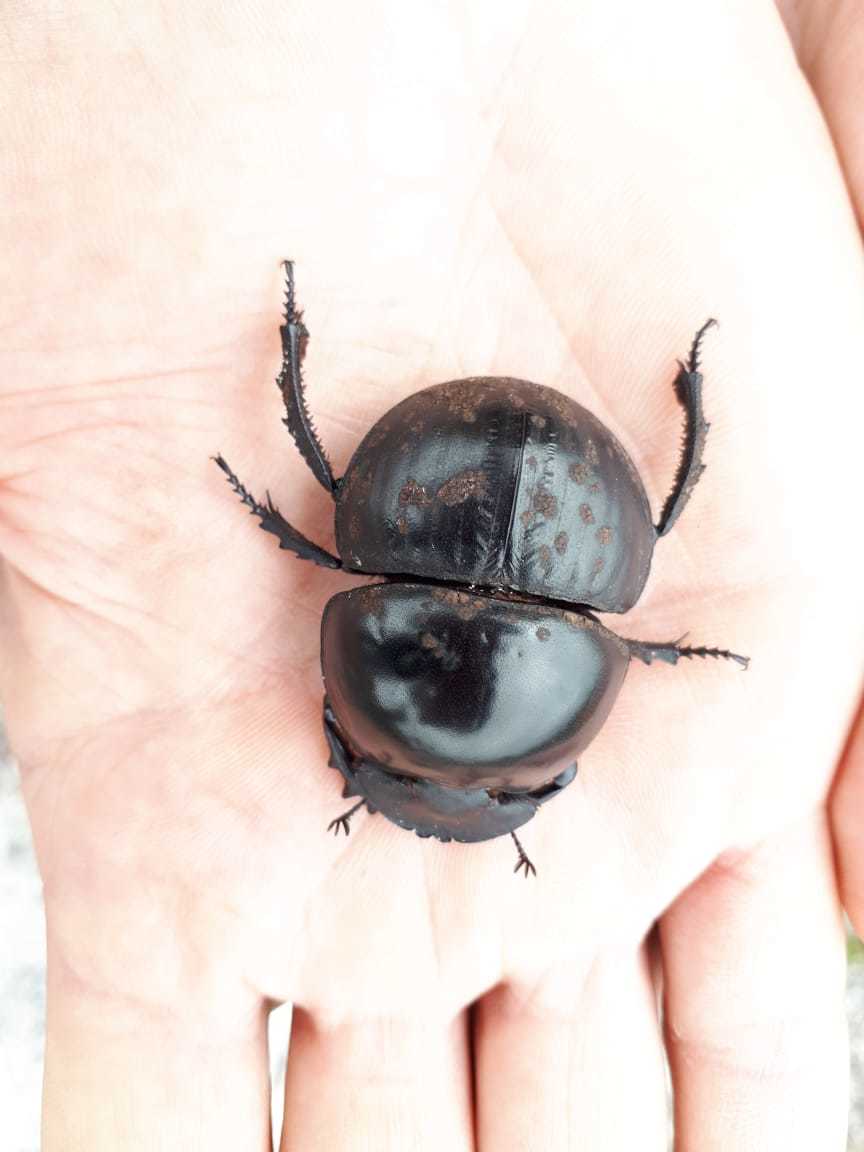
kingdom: Animalia
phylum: Arthropoda
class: Insecta
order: Coleoptera
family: Scarabaeidae
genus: Circellium
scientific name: Circellium bacchus
